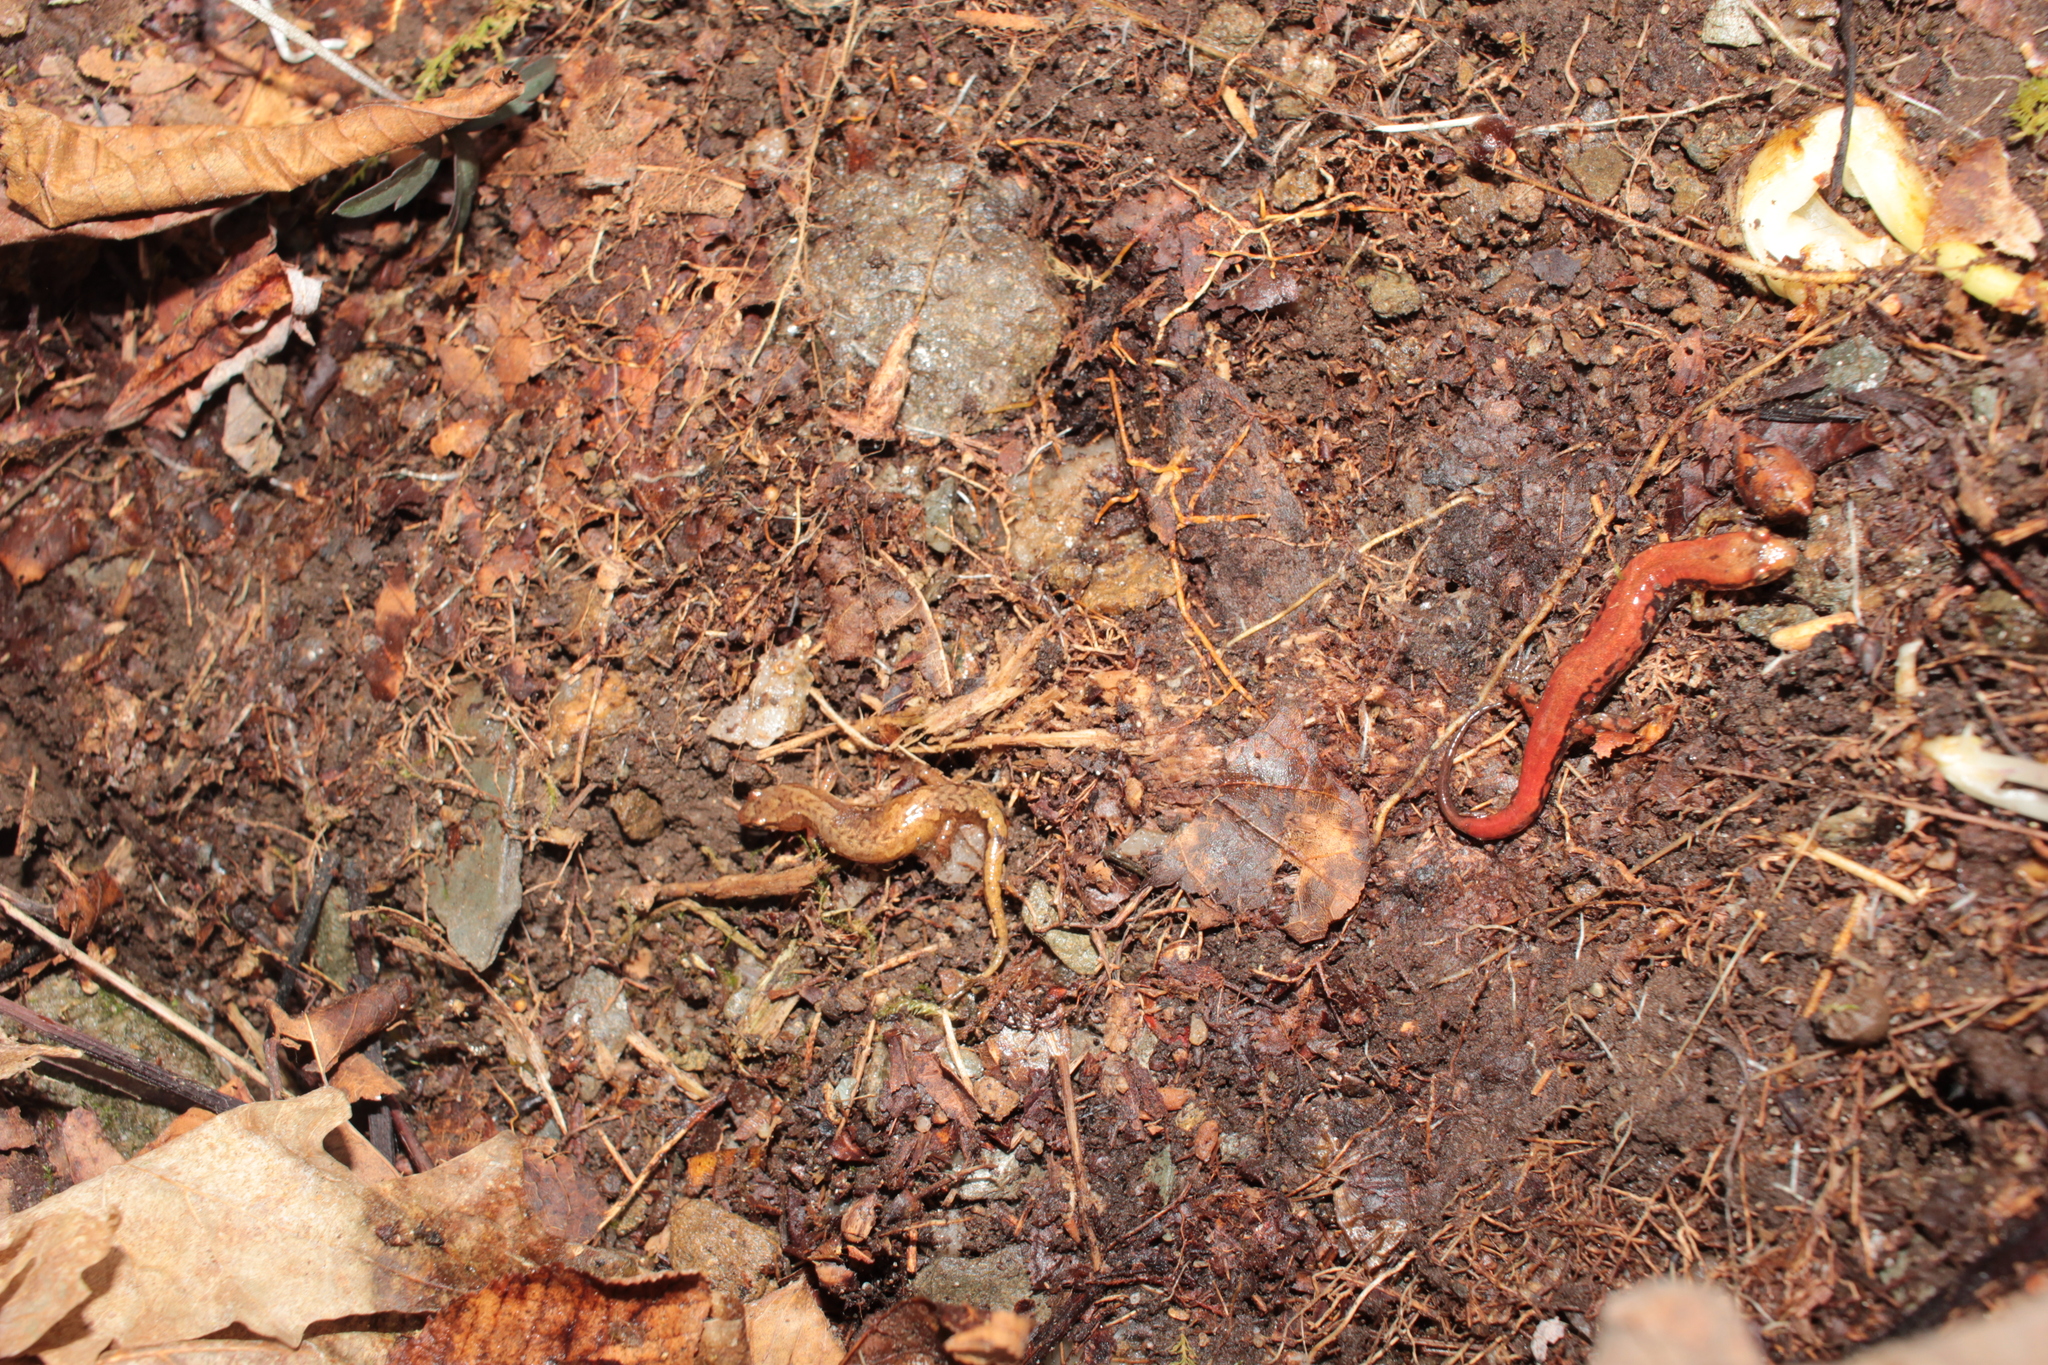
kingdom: Animalia
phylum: Chordata
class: Amphibia
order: Caudata
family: Plethodontidae
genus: Desmognathus
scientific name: Desmognathus organi
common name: Northern pygmy salamander
